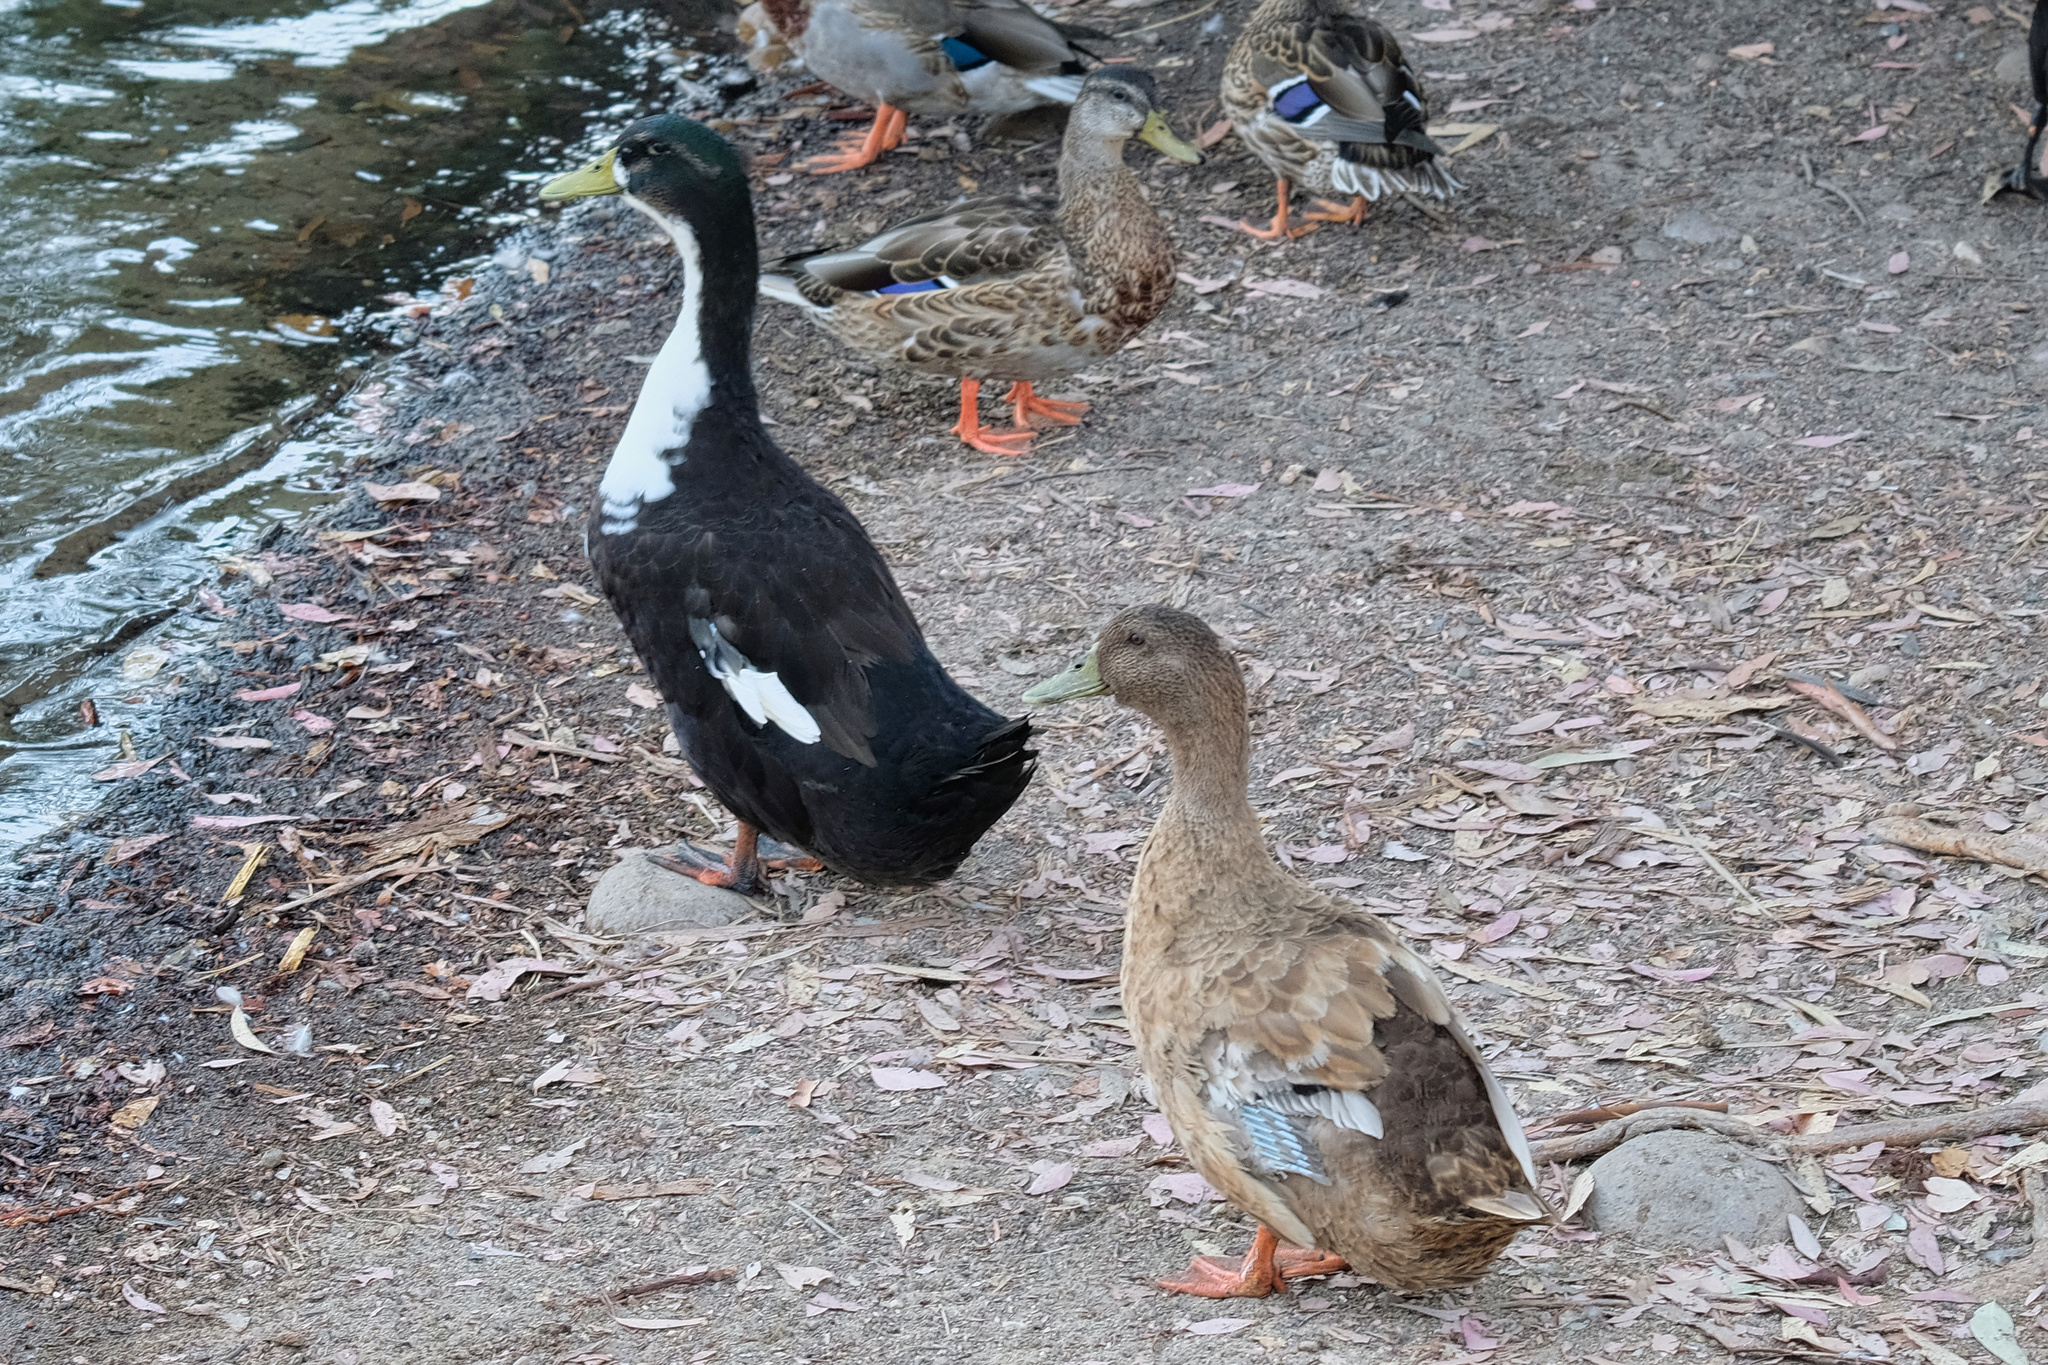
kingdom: Animalia
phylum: Chordata
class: Aves
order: Anseriformes
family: Anatidae
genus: Anas
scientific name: Anas platyrhynchos
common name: Mallard
